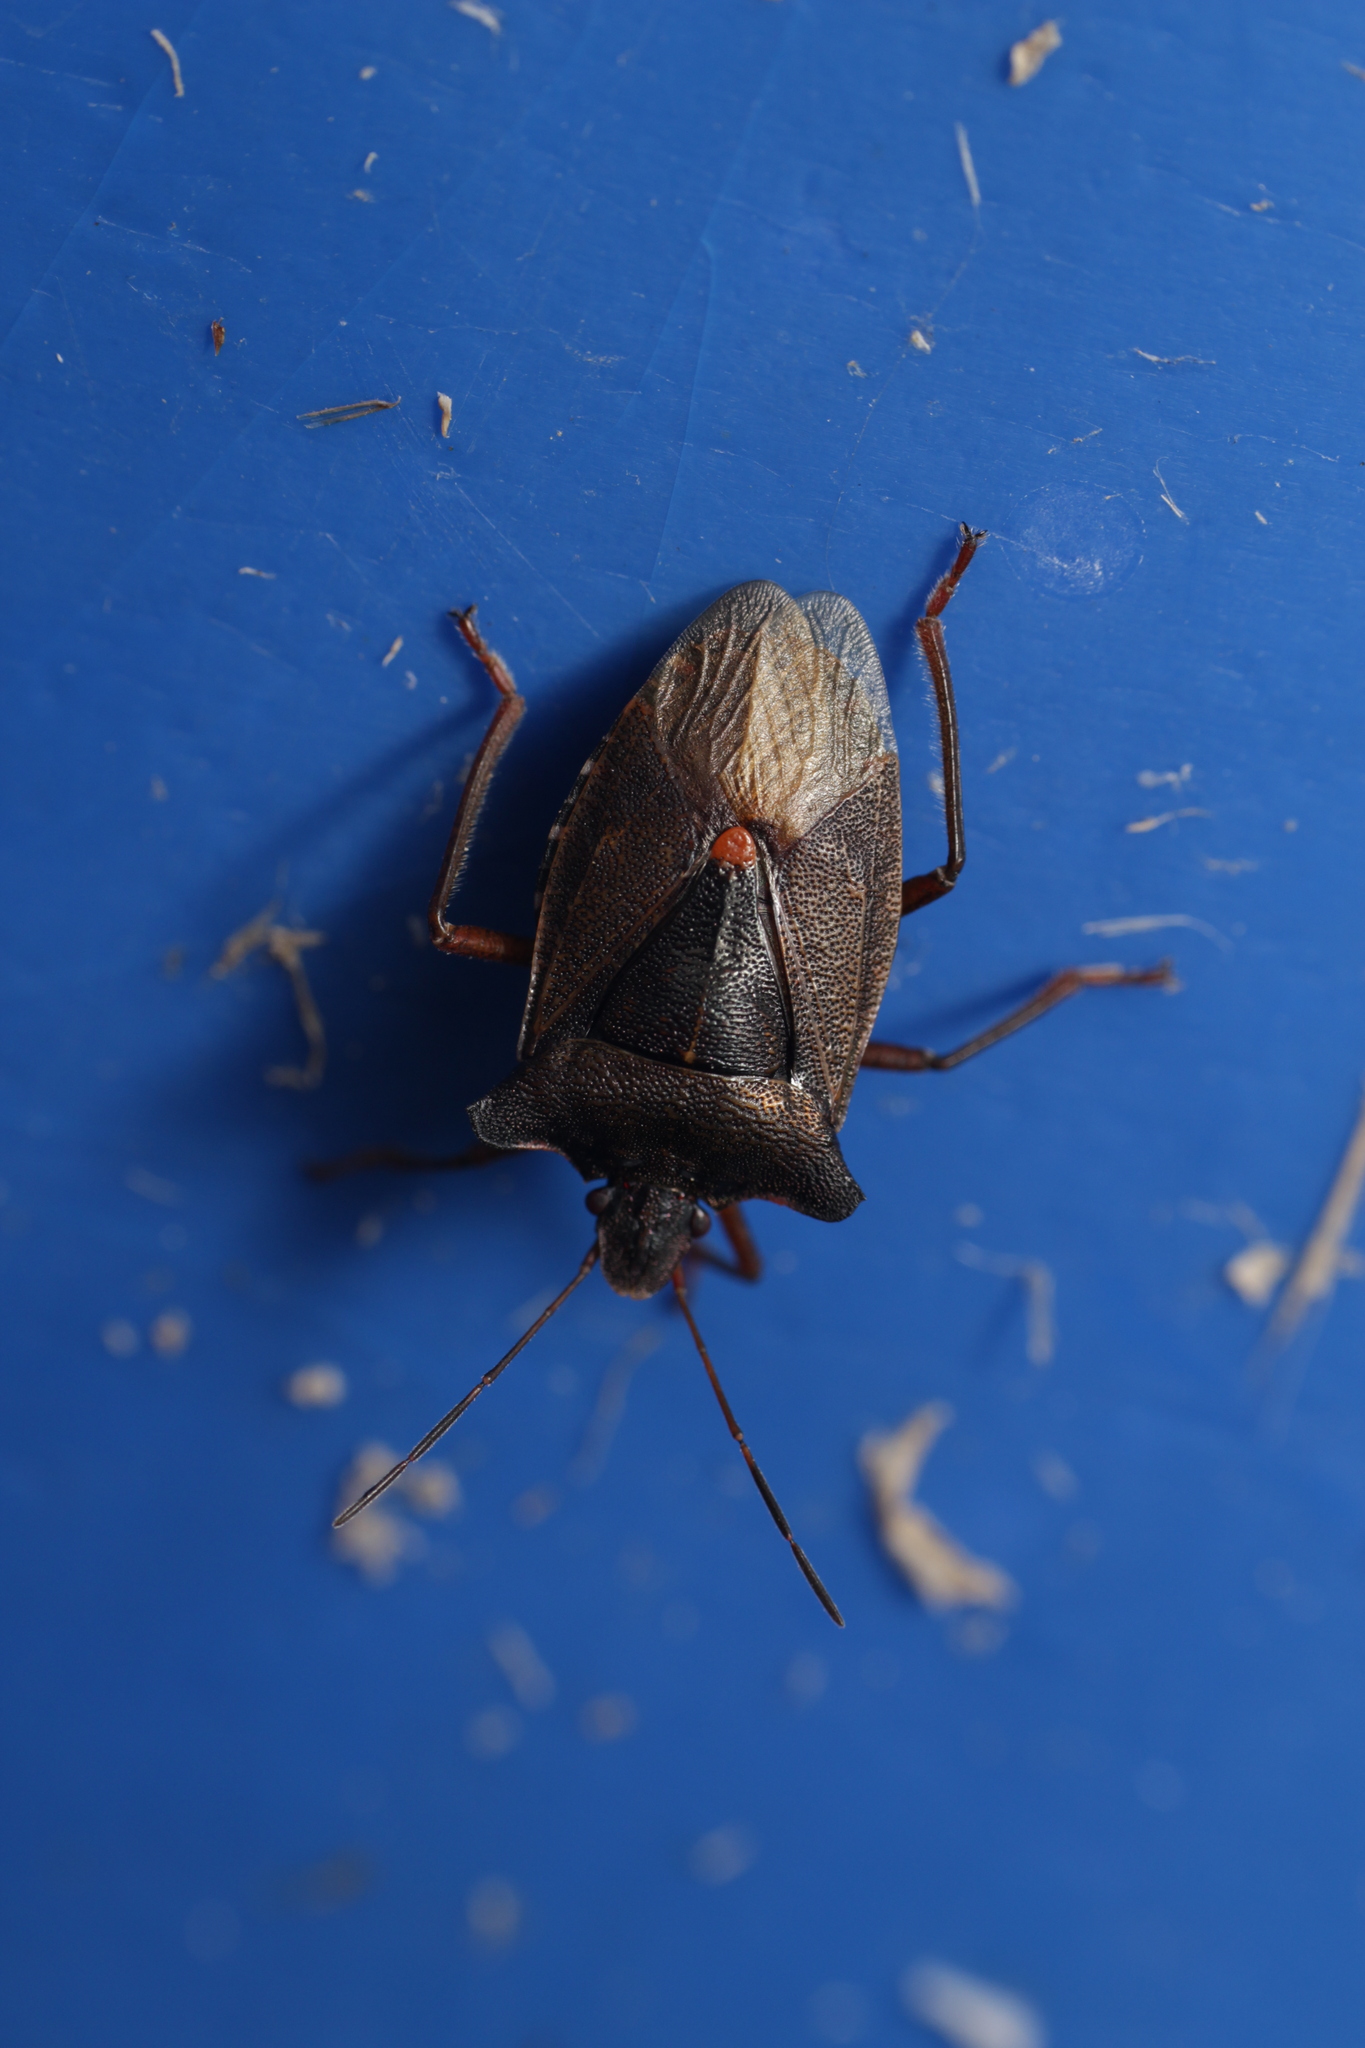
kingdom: Animalia
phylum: Arthropoda
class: Insecta
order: Hemiptera
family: Pentatomidae
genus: Pentatoma
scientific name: Pentatoma rufipes
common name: Forest bug
